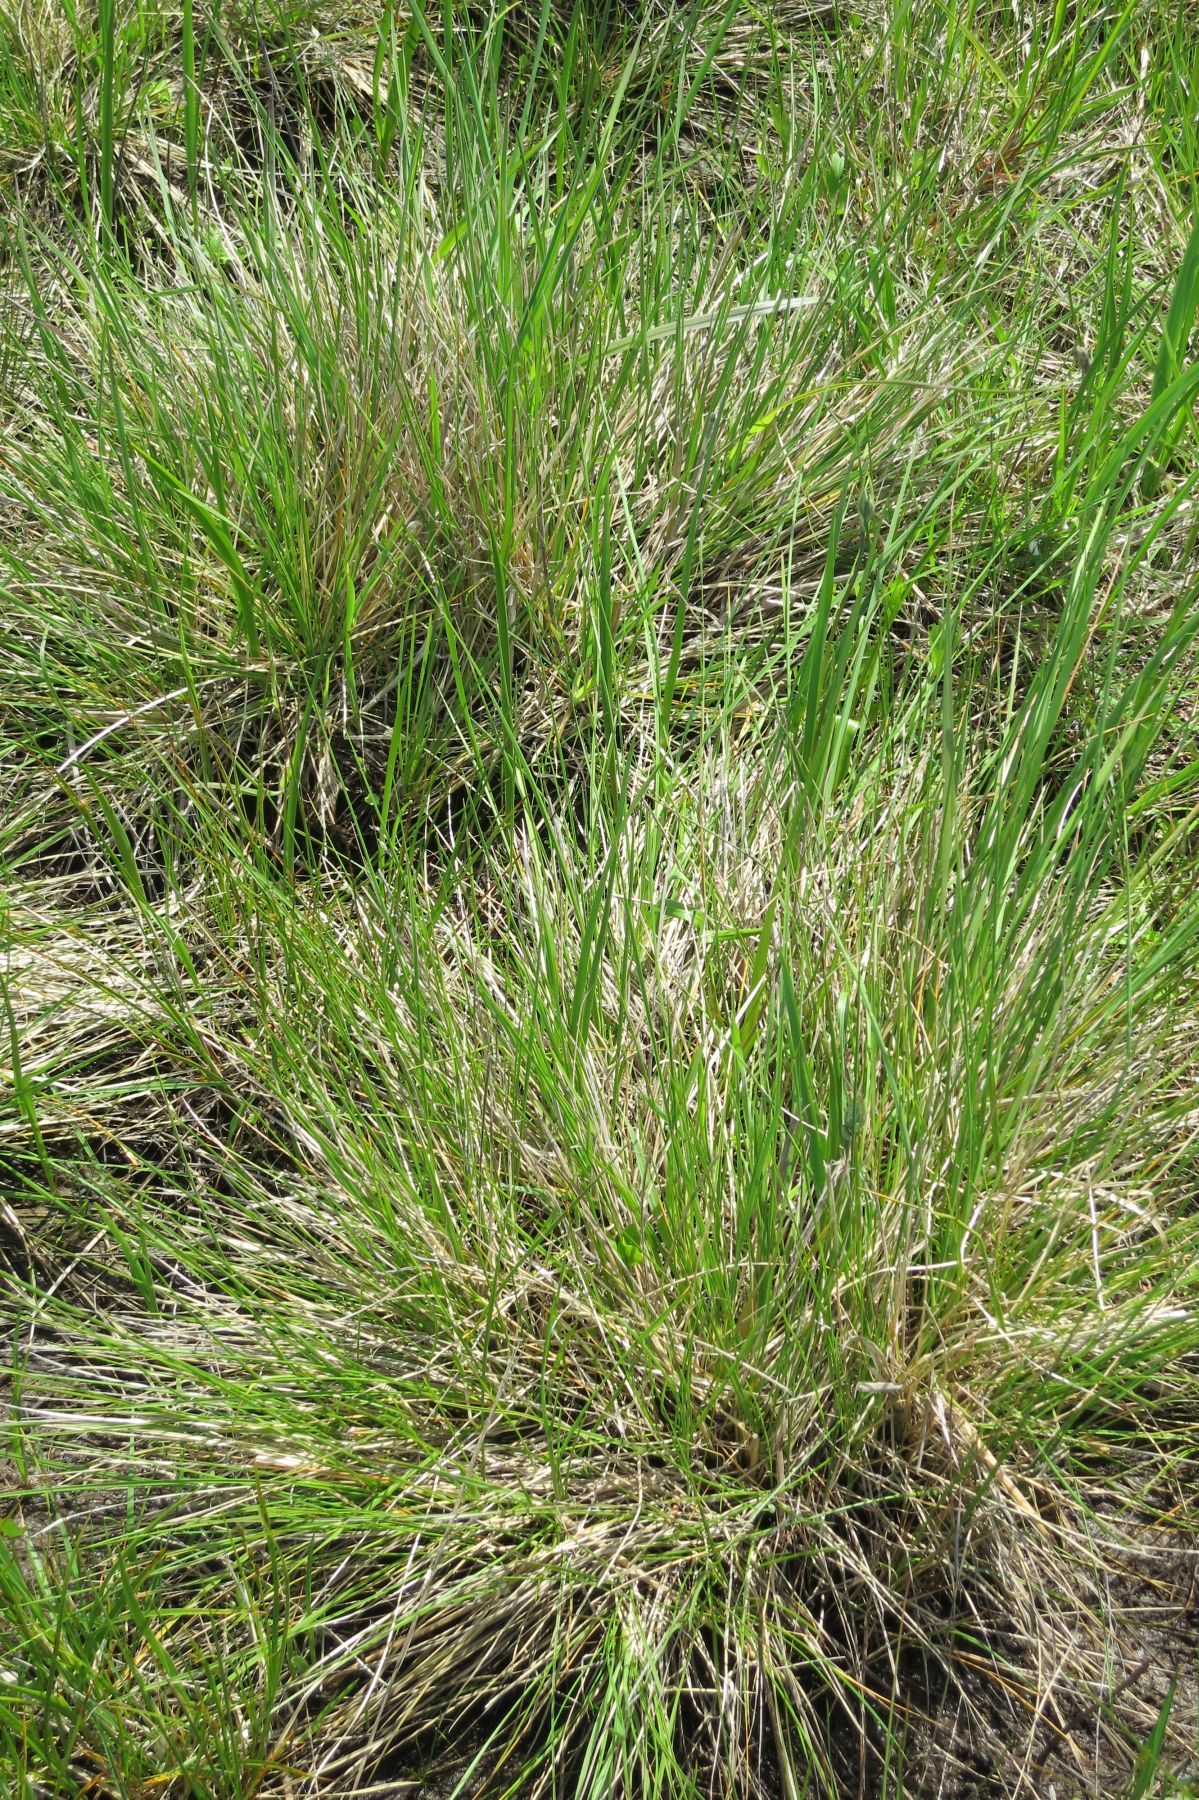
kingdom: Plantae
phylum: Tracheophyta
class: Liliopsida
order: Poales
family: Poaceae
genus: Deschampsia
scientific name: Deschampsia cespitosa
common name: Tufted hair-grass
